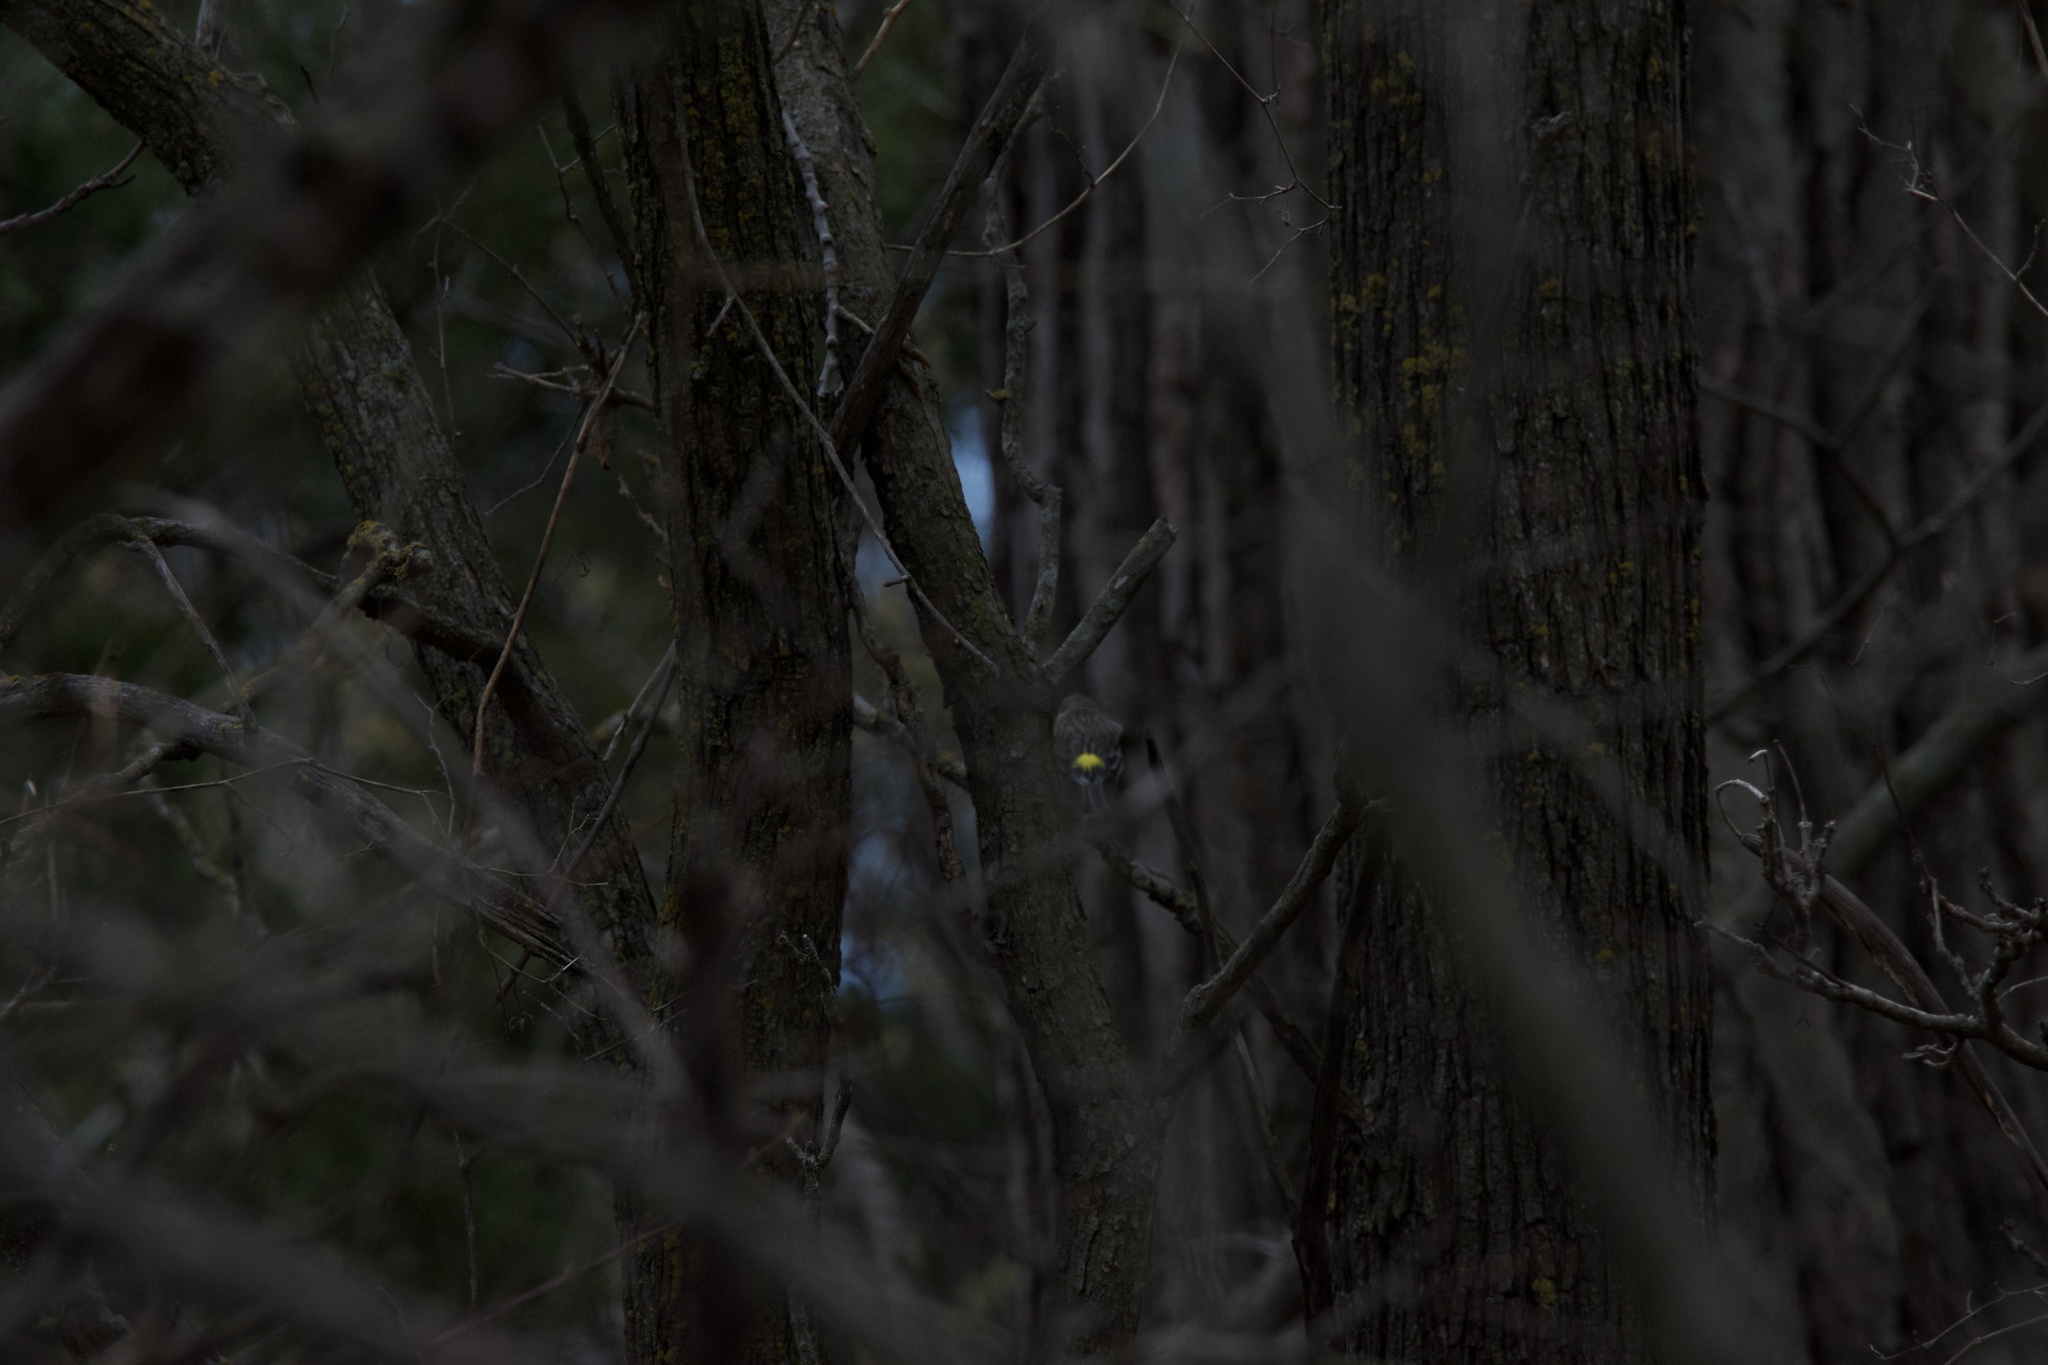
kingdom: Animalia
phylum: Chordata
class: Aves
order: Passeriformes
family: Parulidae
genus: Setophaga
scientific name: Setophaga coronata
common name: Myrtle warbler
